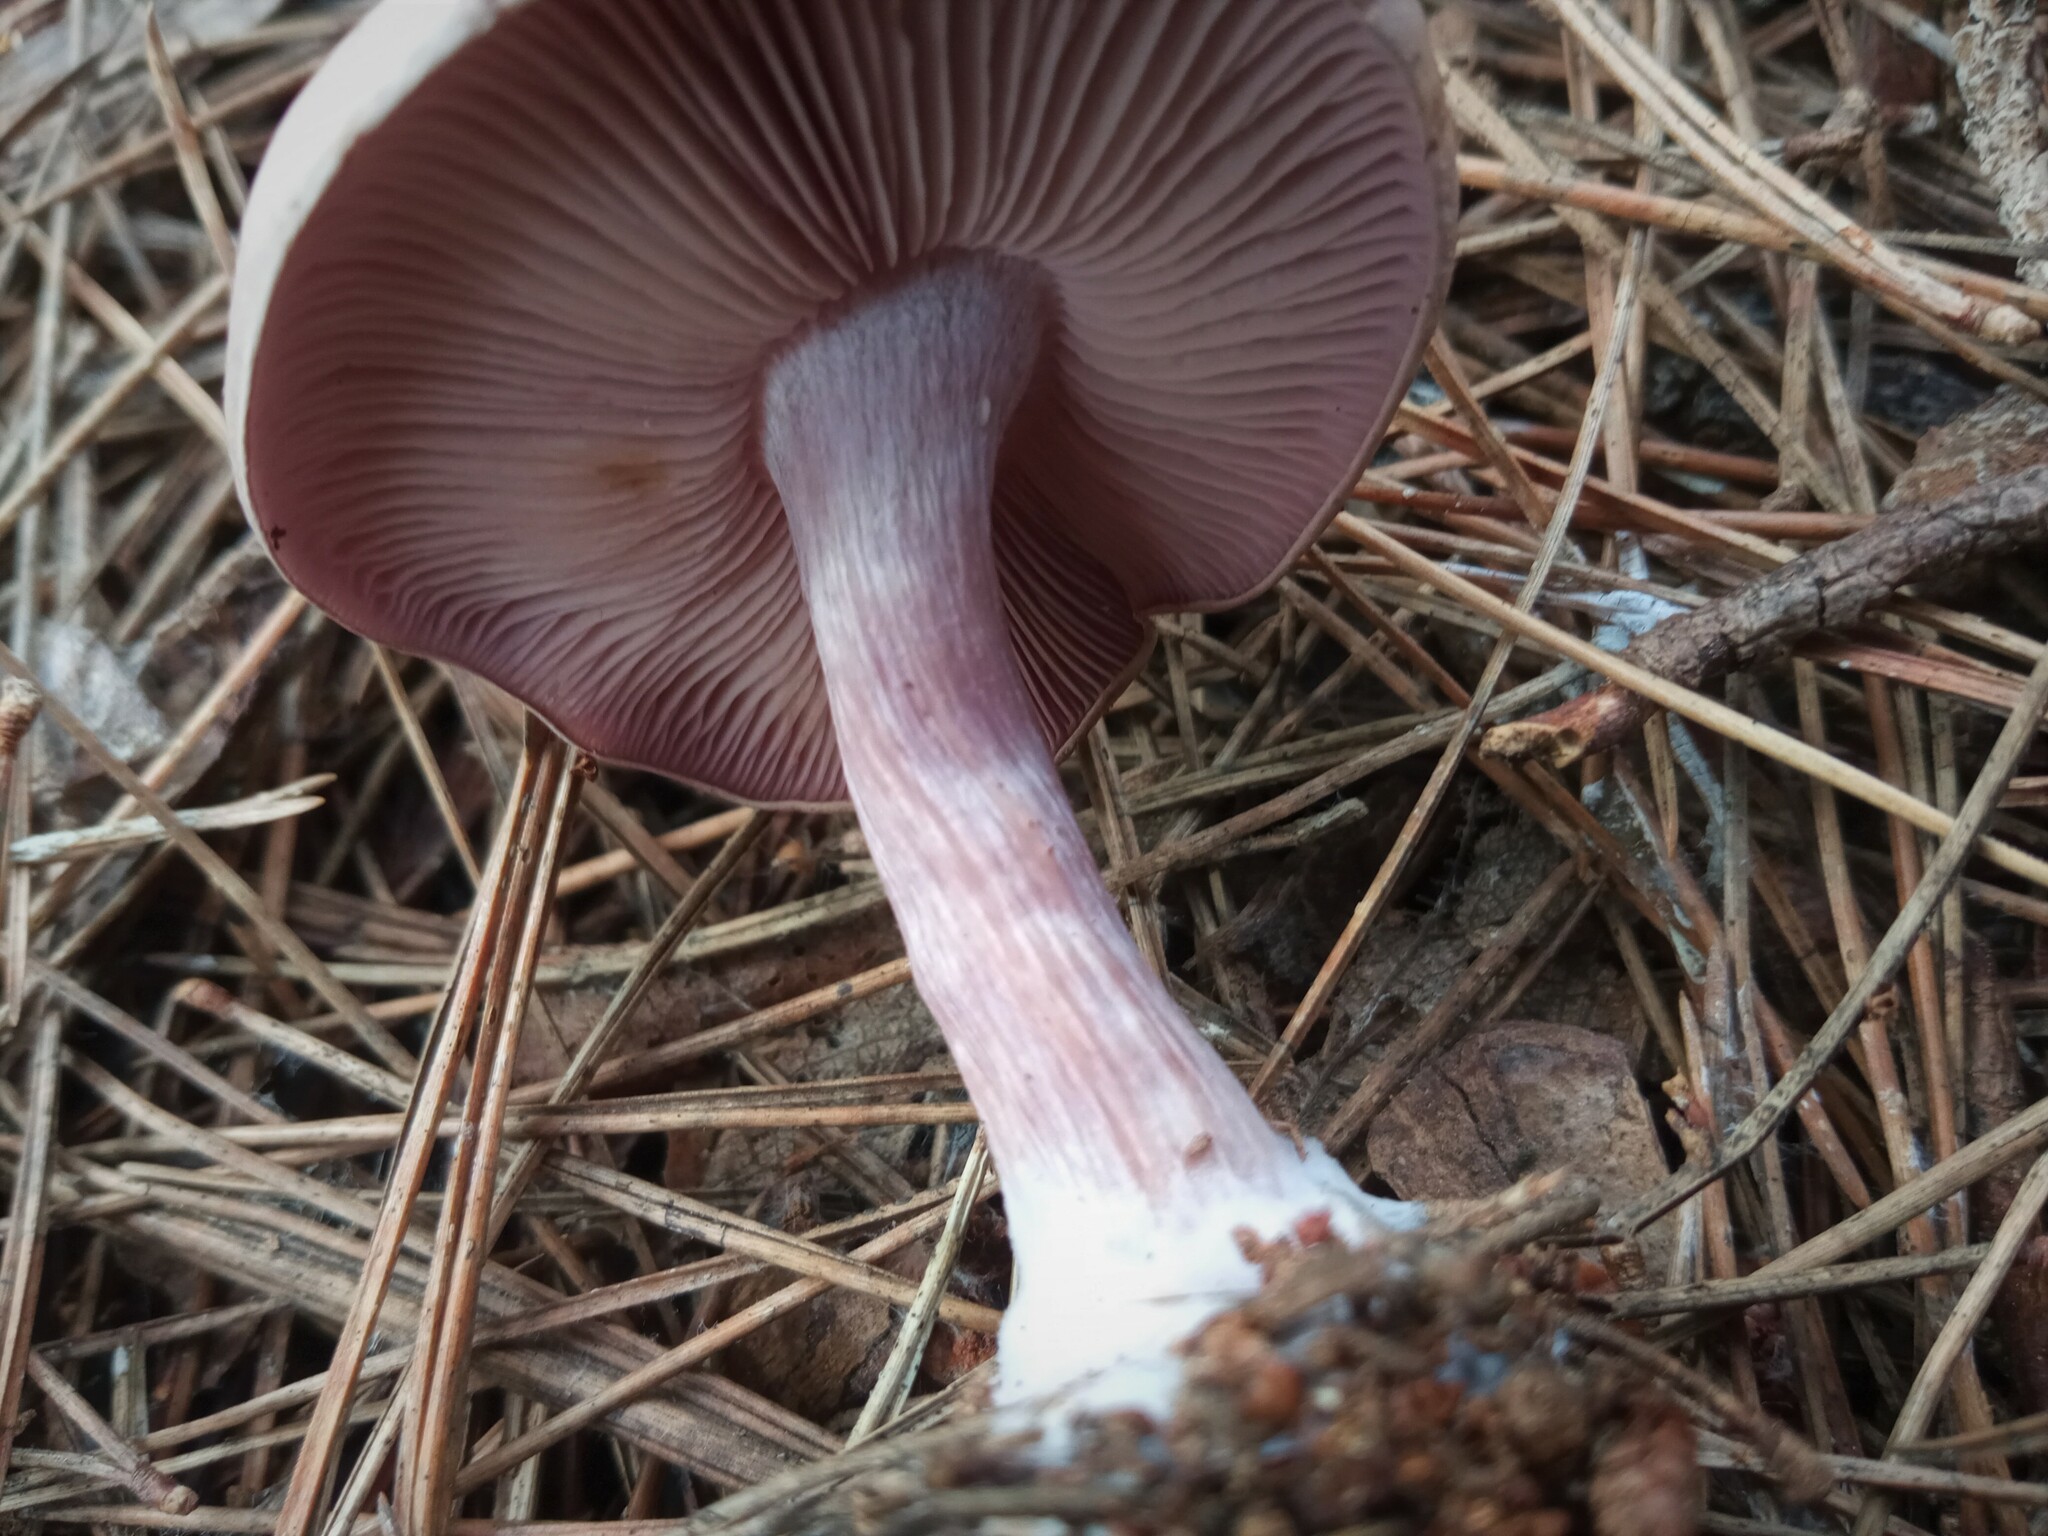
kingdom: Fungi
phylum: Basidiomycota
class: Agaricomycetes
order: Agaricales
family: Tricholomataceae
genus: Collybia
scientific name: Collybia
